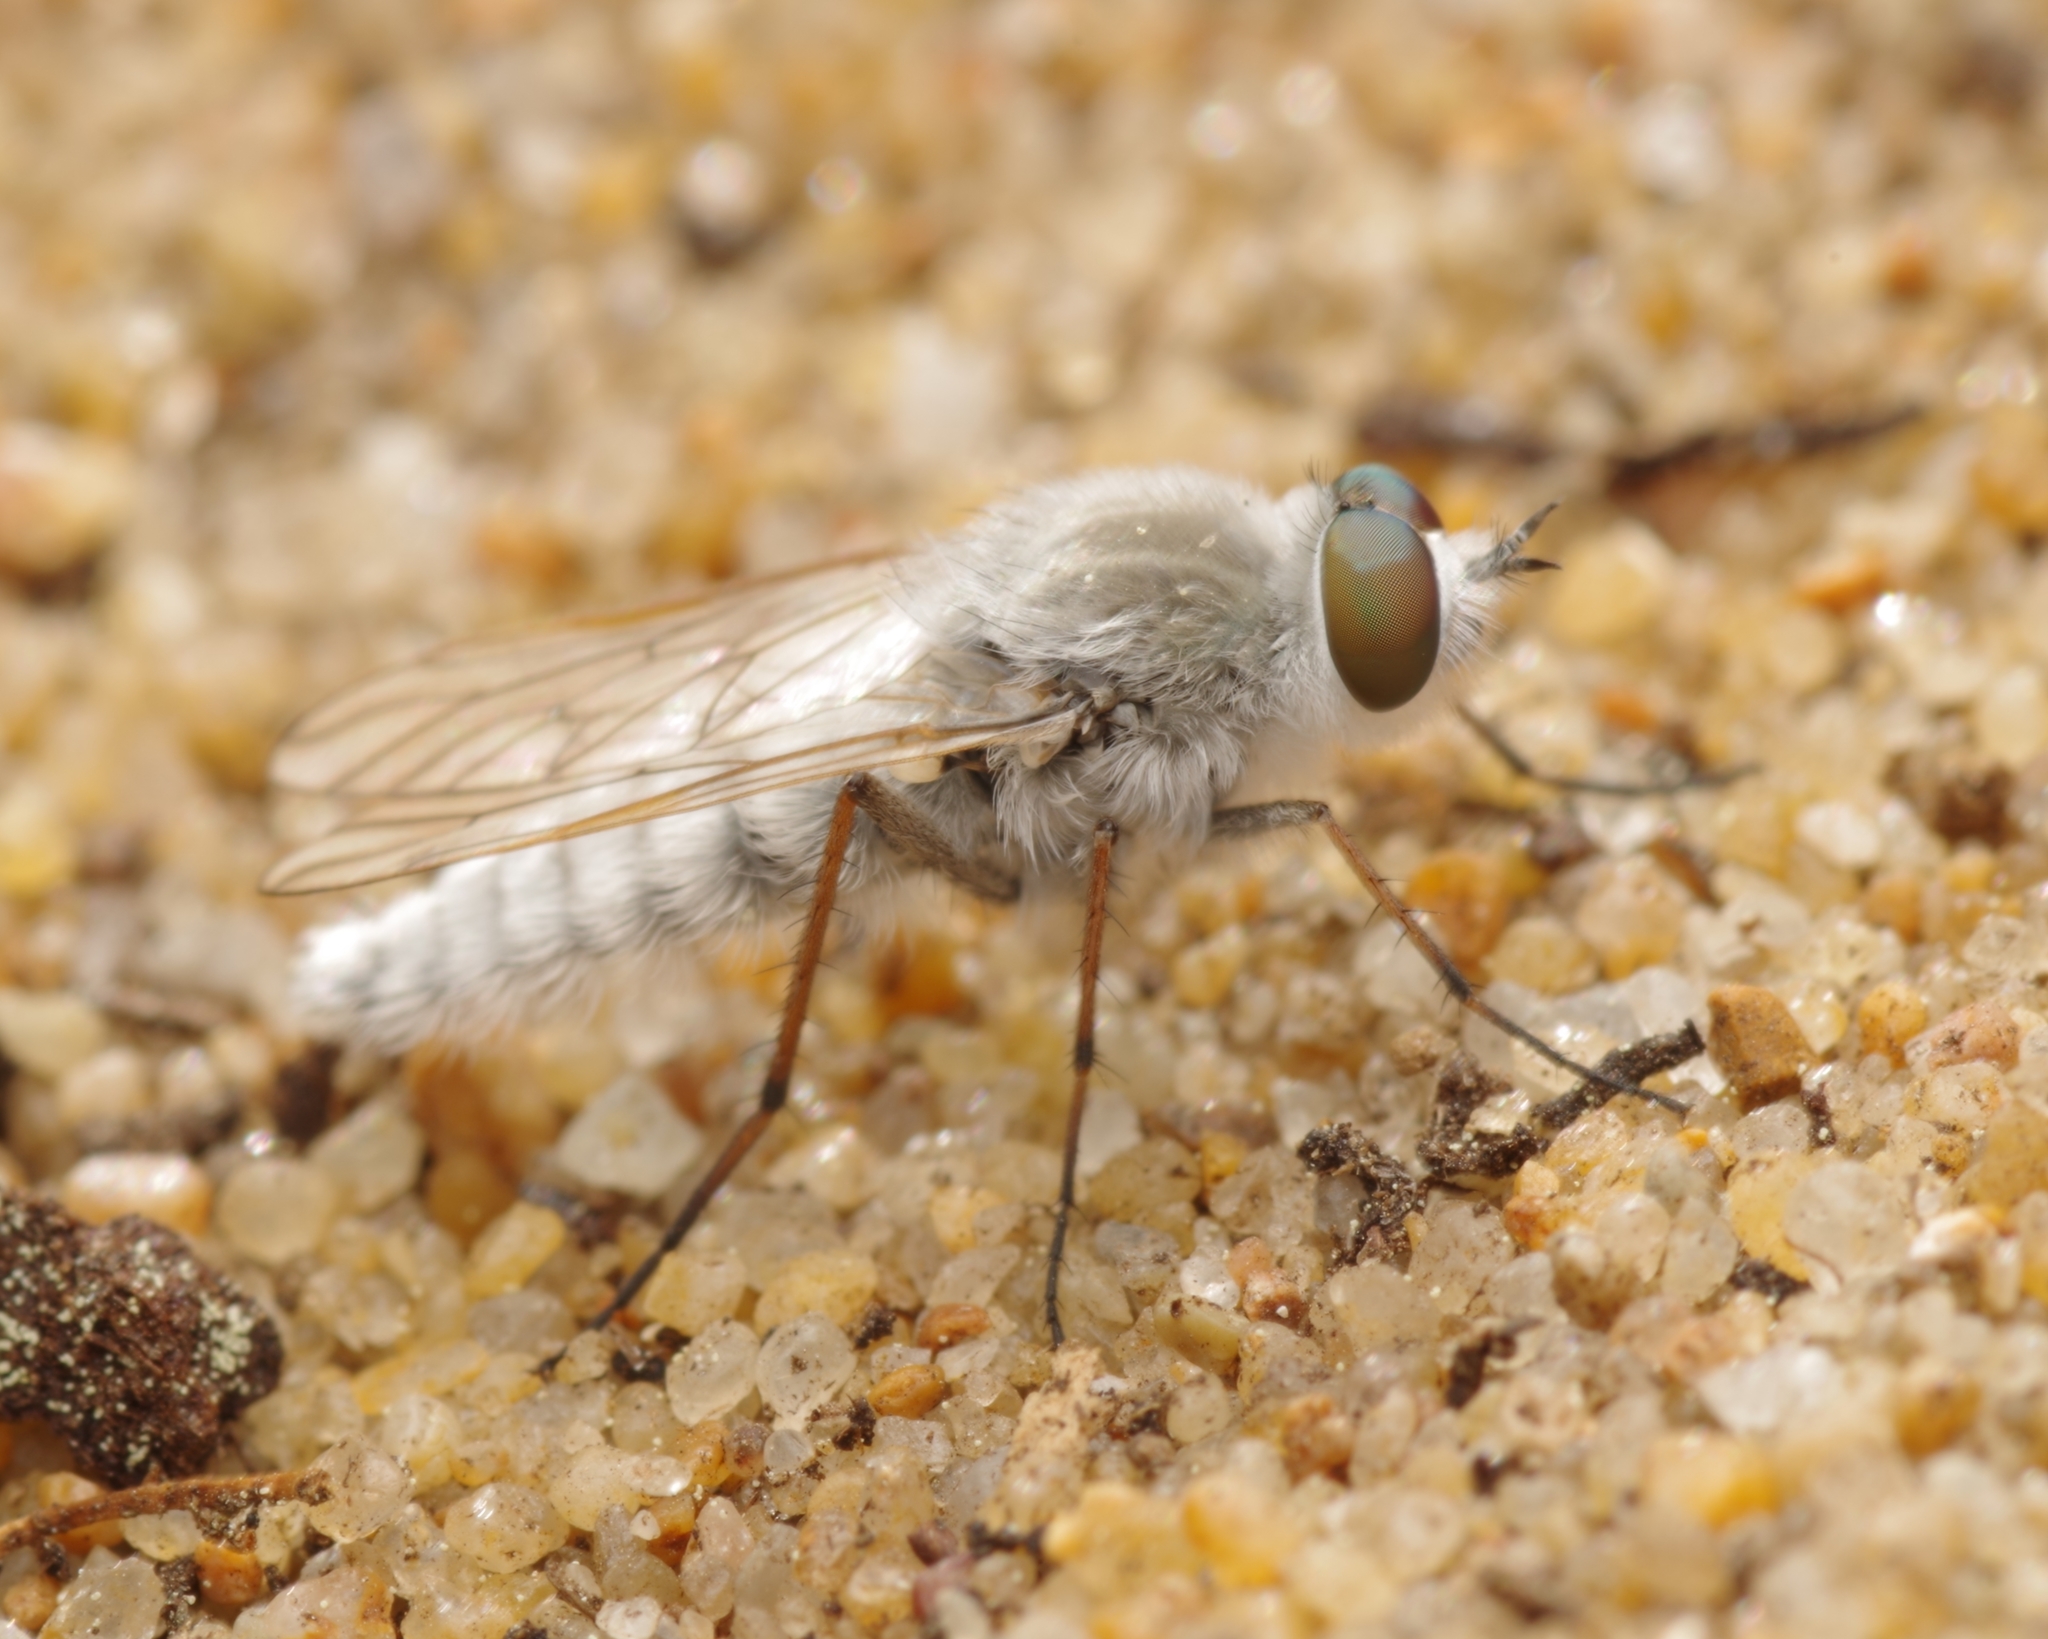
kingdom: Animalia
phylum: Arthropoda
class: Insecta
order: Diptera
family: Therevidae
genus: Acrosathe
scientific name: Acrosathe annulata
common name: Coastal silver-stiletto
